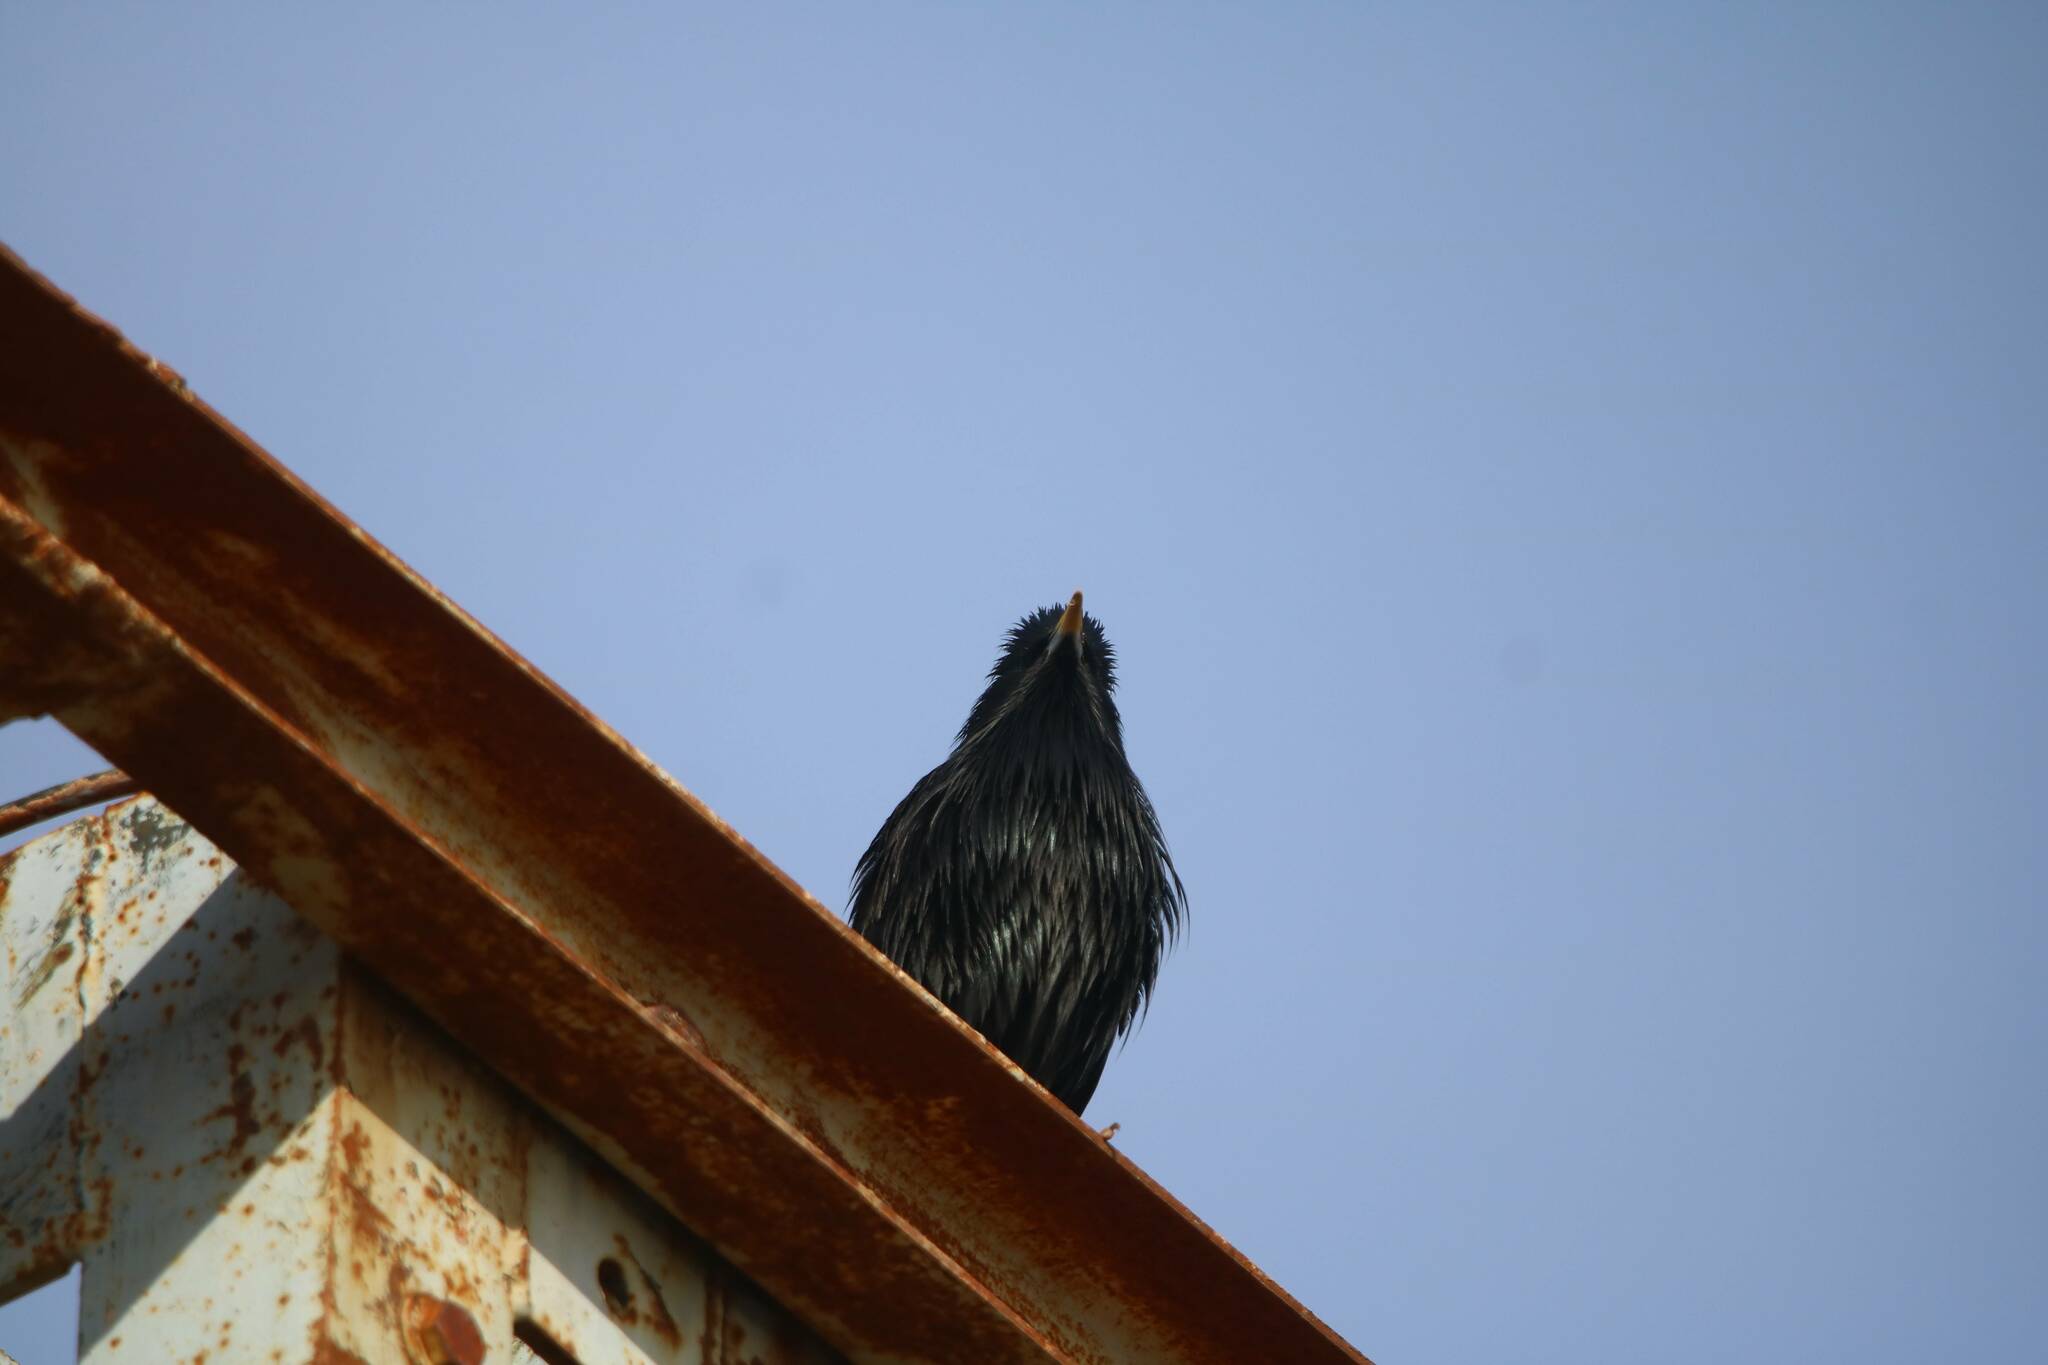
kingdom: Animalia
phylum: Chordata
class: Aves
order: Passeriformes
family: Sturnidae
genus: Sturnus
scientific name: Sturnus unicolor
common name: Spotless starling
